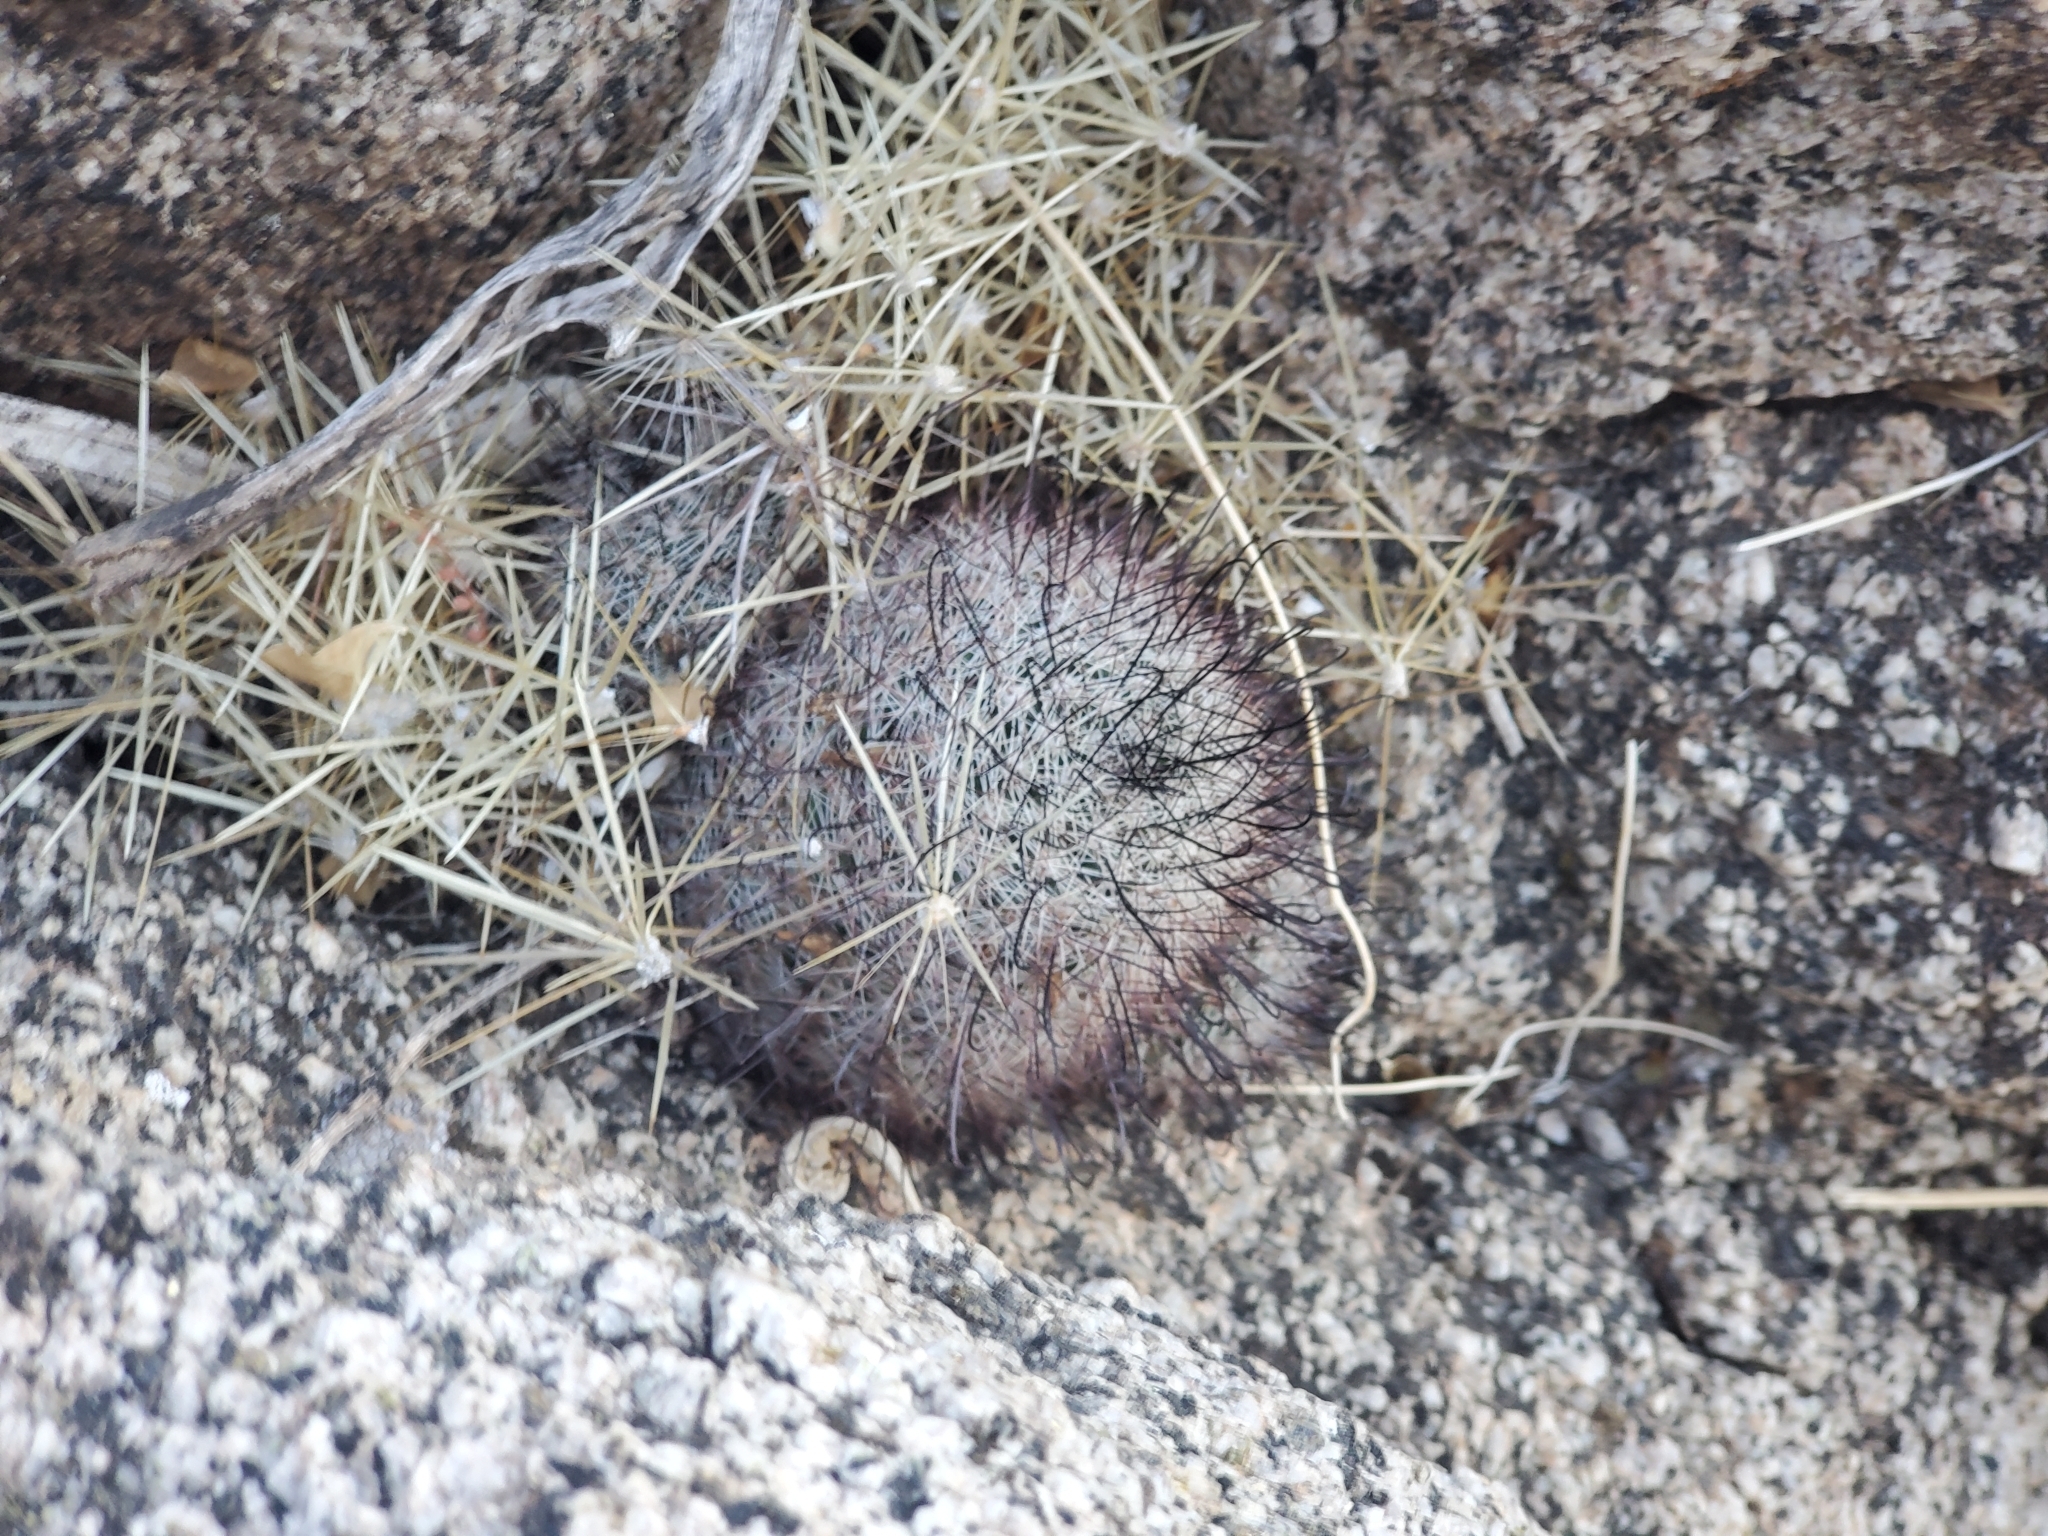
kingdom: Plantae
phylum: Tracheophyta
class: Magnoliopsida
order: Caryophyllales
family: Cactaceae
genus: Cochemiea
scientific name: Cochemiea grahamii
